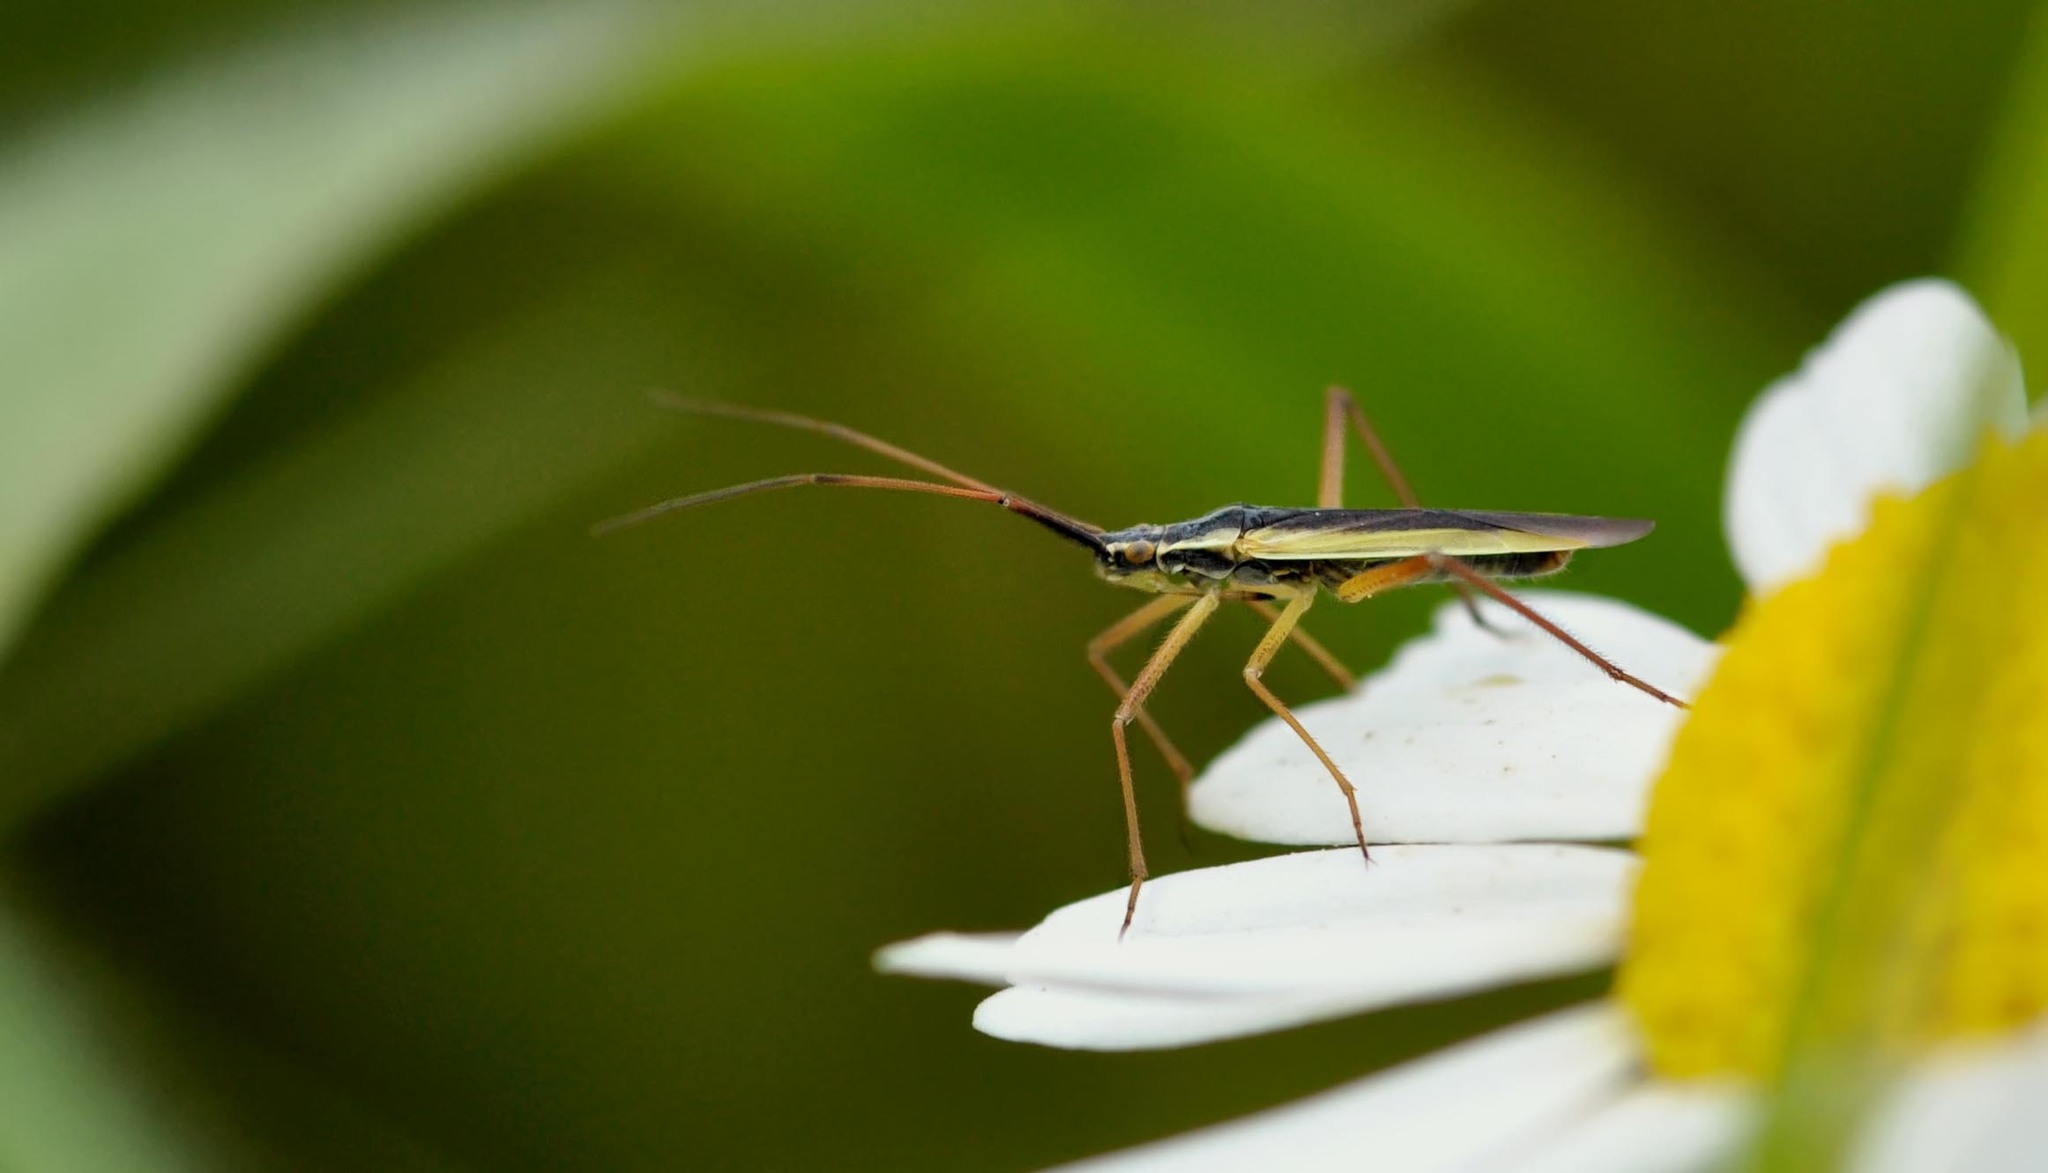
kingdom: Animalia
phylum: Arthropoda
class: Insecta
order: Hemiptera
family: Miridae
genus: Notostira
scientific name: Notostira elongata
